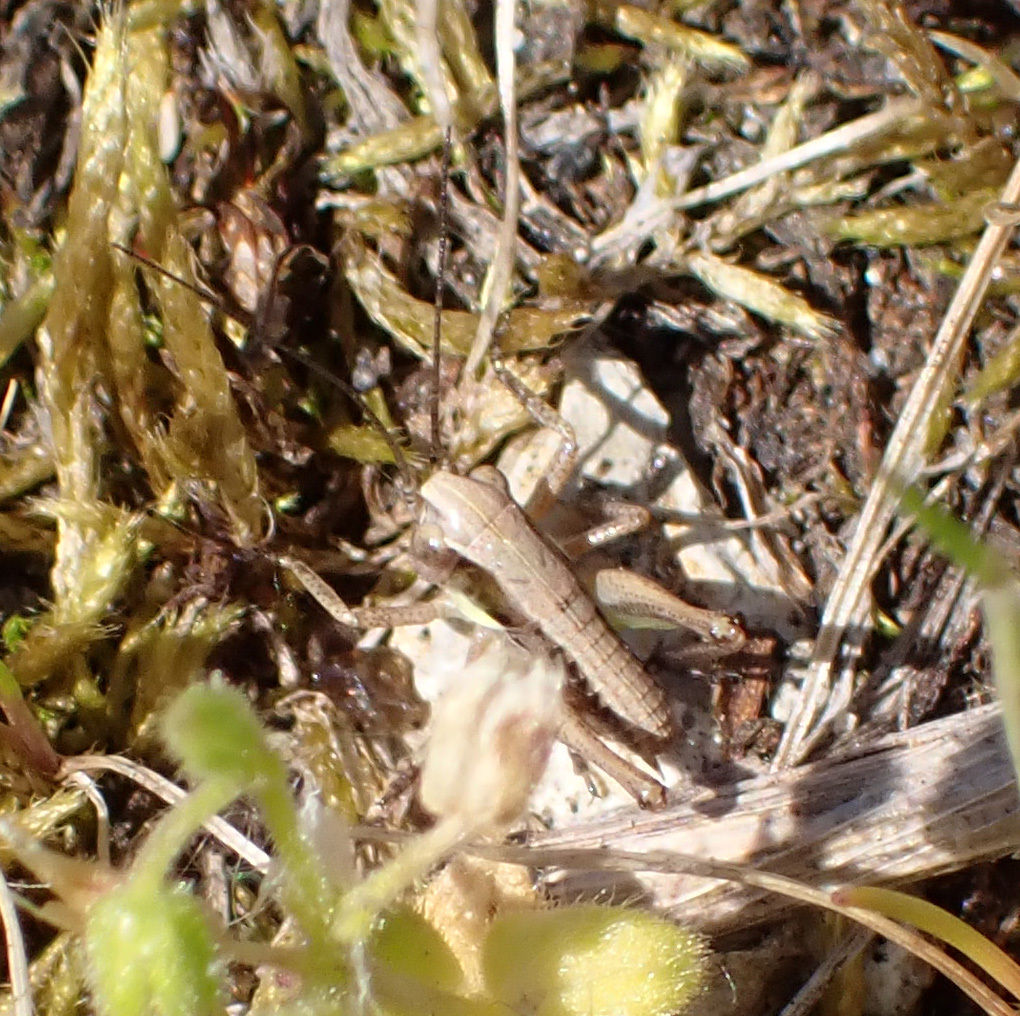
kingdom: Animalia
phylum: Arthropoda
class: Insecta
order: Orthoptera
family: Tettigoniidae
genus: Platycleis
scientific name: Platycleis grisea
